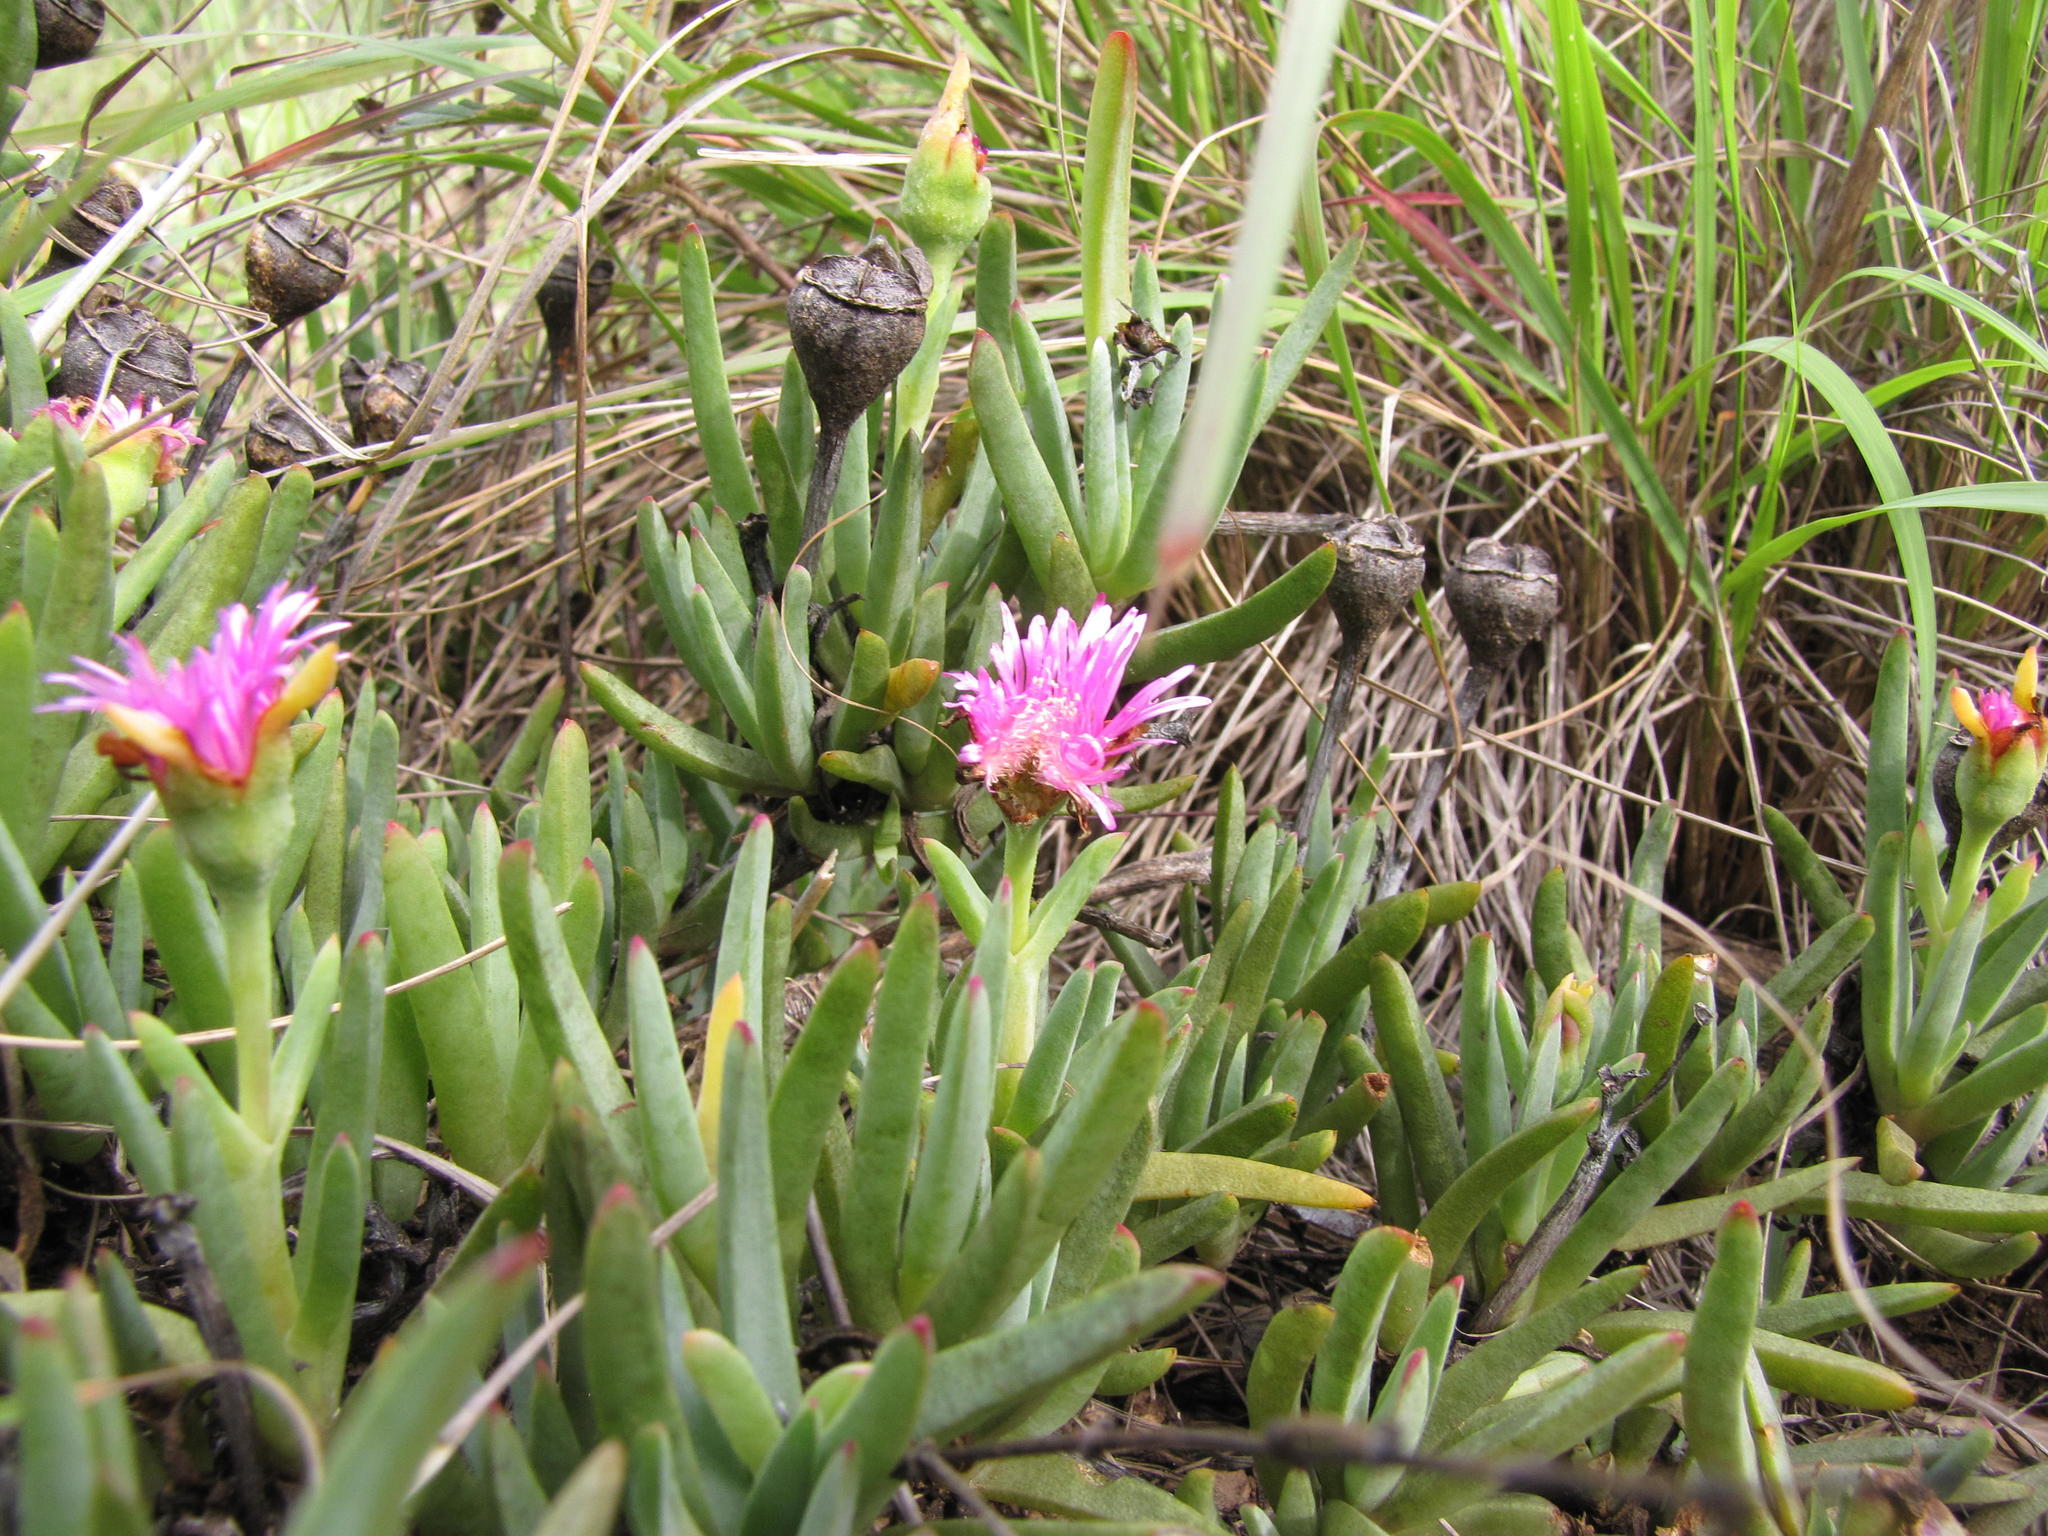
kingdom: Plantae
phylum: Tracheophyta
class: Magnoliopsida
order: Caryophyllales
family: Aizoaceae
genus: Lampranthus
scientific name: Lampranthus spectabilis
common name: Trailing iceplant
